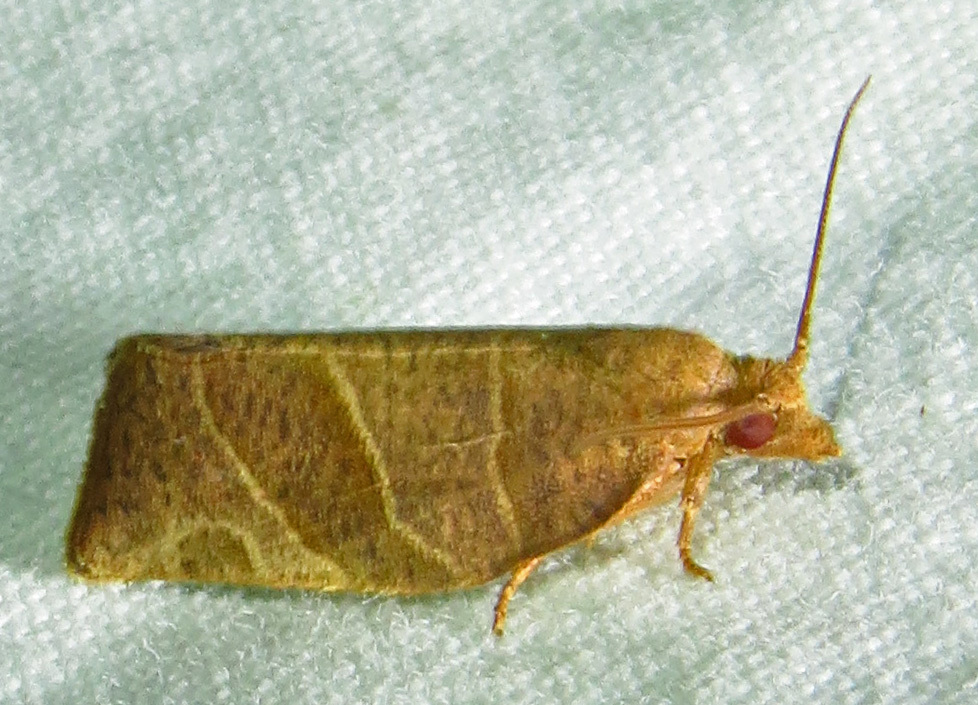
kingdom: Animalia
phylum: Arthropoda
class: Insecta
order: Lepidoptera
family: Tortricidae
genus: Pandemis
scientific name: Pandemis limitata
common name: Three-lined leafroller moth
